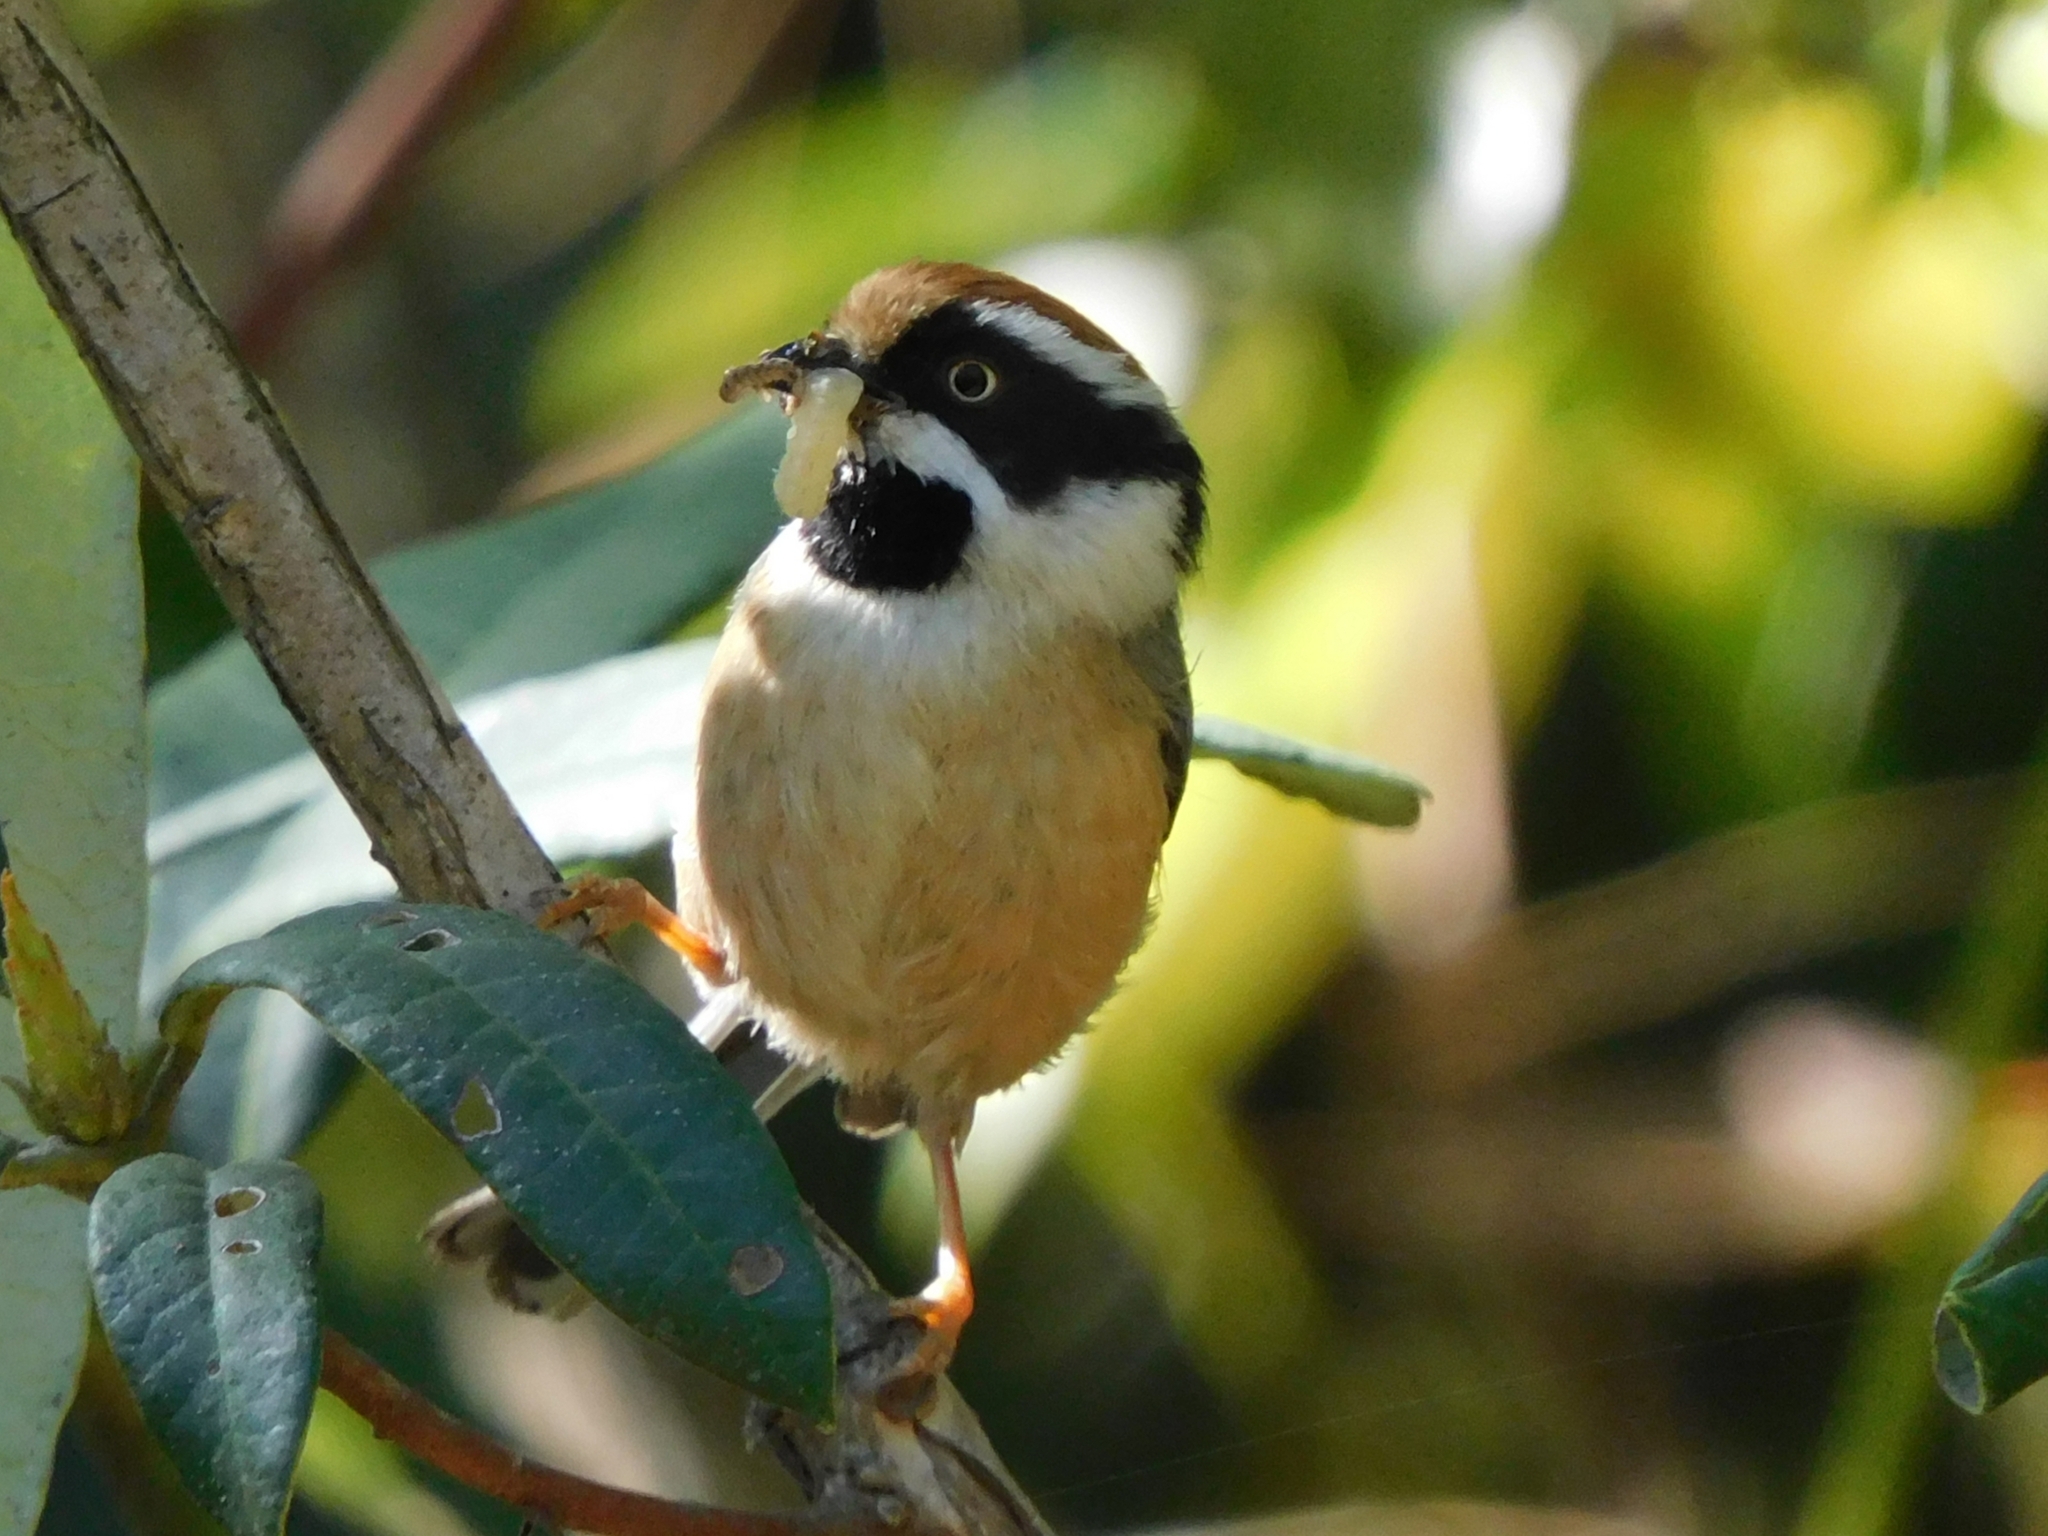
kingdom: Animalia
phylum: Chordata
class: Aves
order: Passeriformes
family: Aegithalidae
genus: Aegithalos
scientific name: Aegithalos concinnus
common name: Black-throated bushtit
